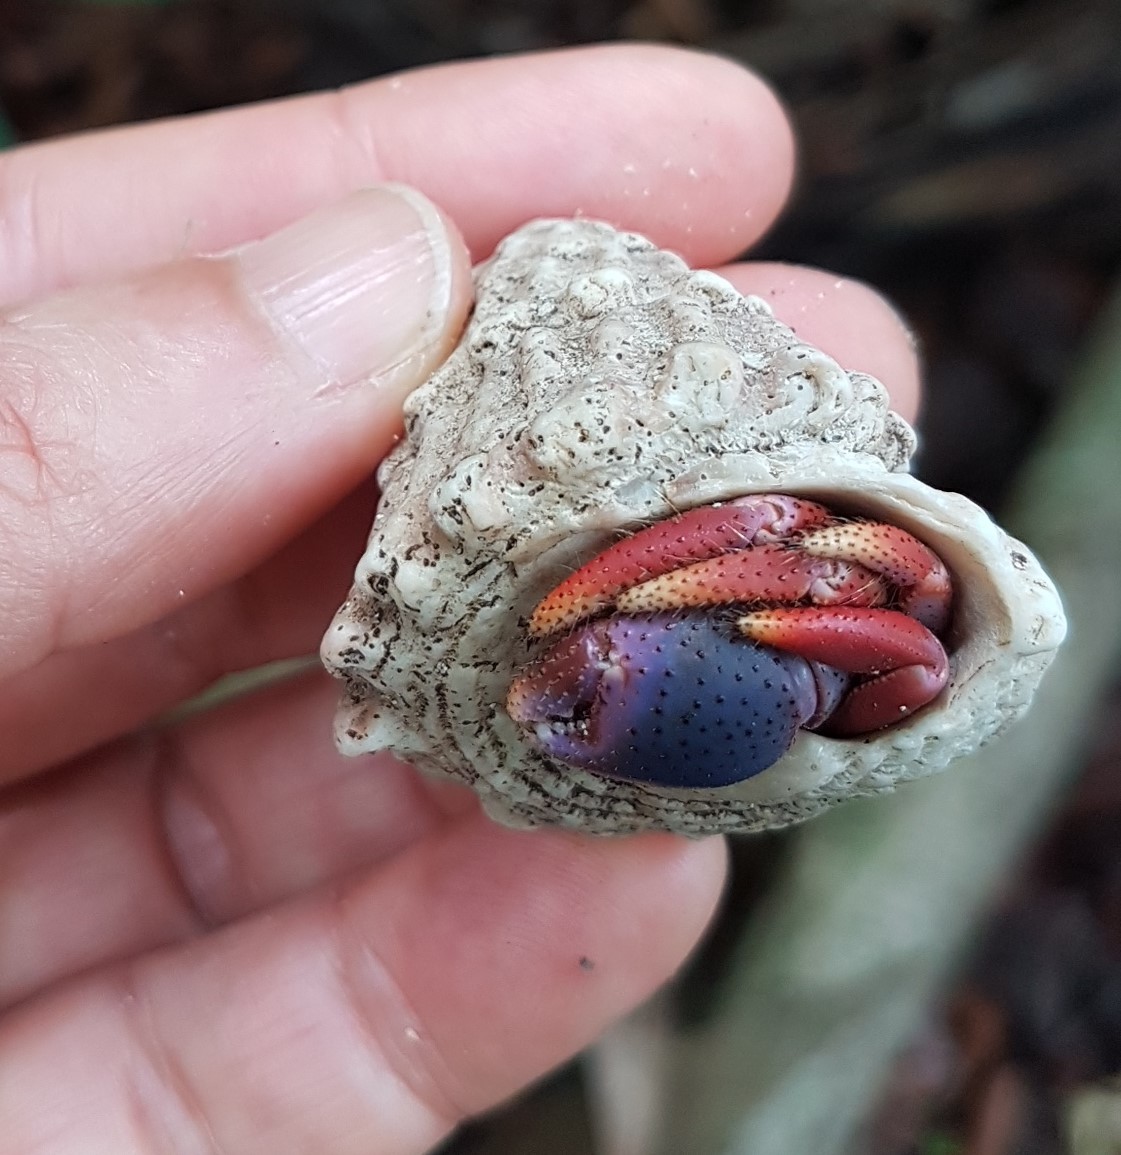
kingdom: Animalia
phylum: Arthropoda
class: Malacostraca
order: Decapoda
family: Coenobitidae
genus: Coenobita
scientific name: Coenobita clypeatus
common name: Caribbean hermit crab
